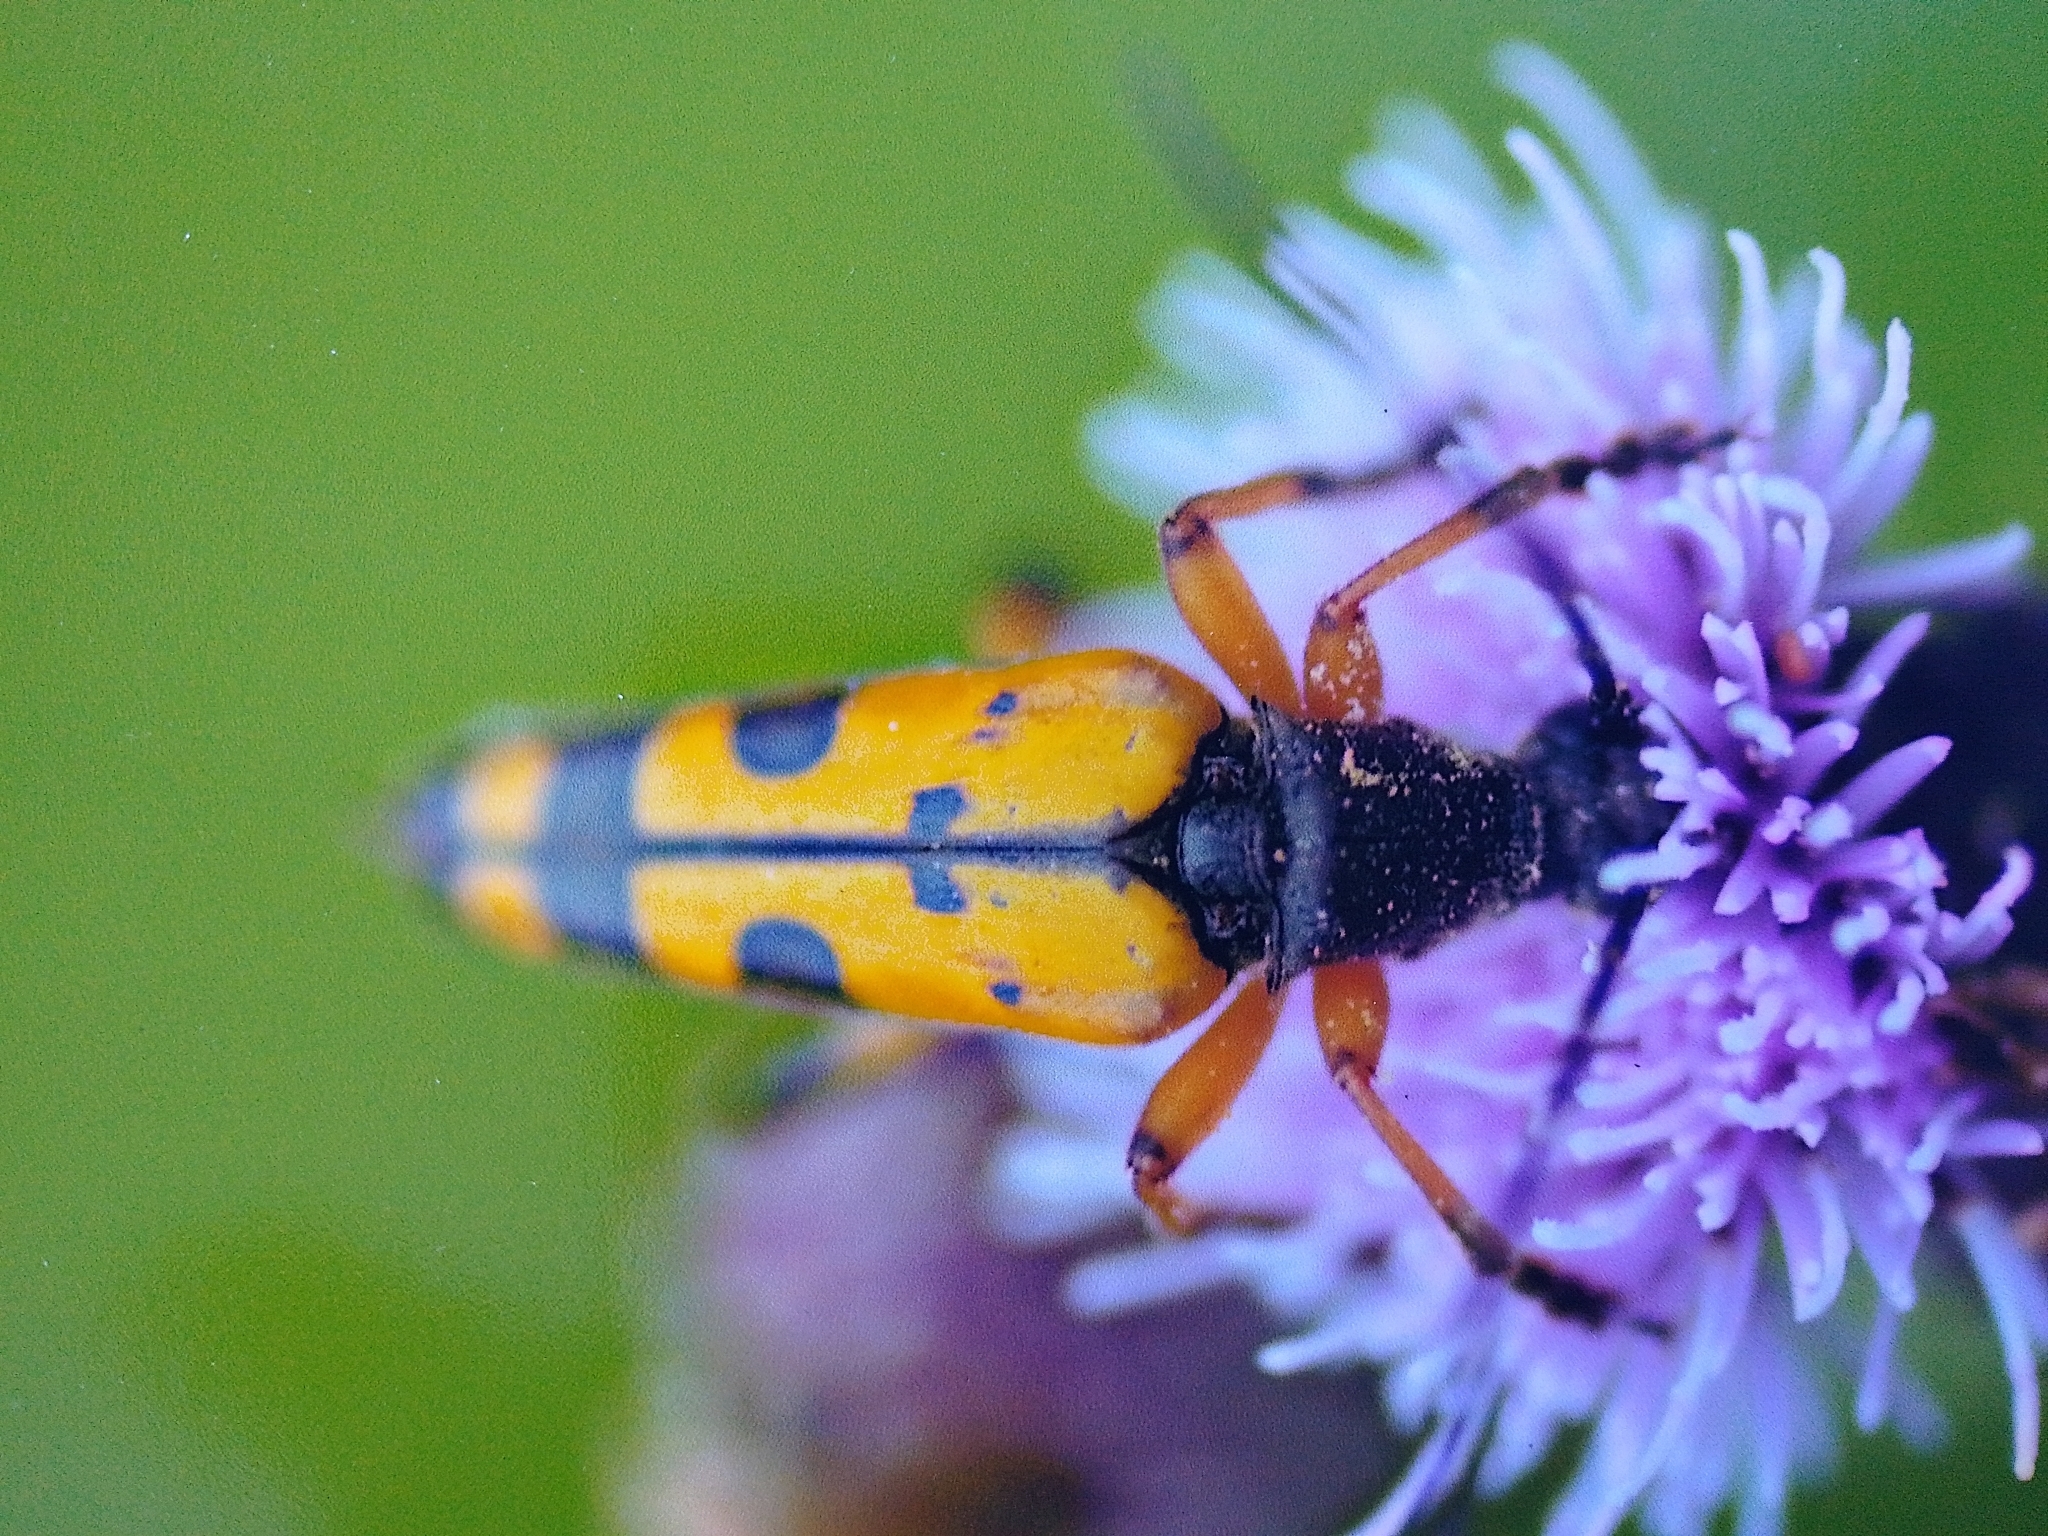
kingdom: Animalia
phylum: Arthropoda
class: Insecta
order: Coleoptera
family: Cerambycidae
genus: Rutpela
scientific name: Rutpela maculata
